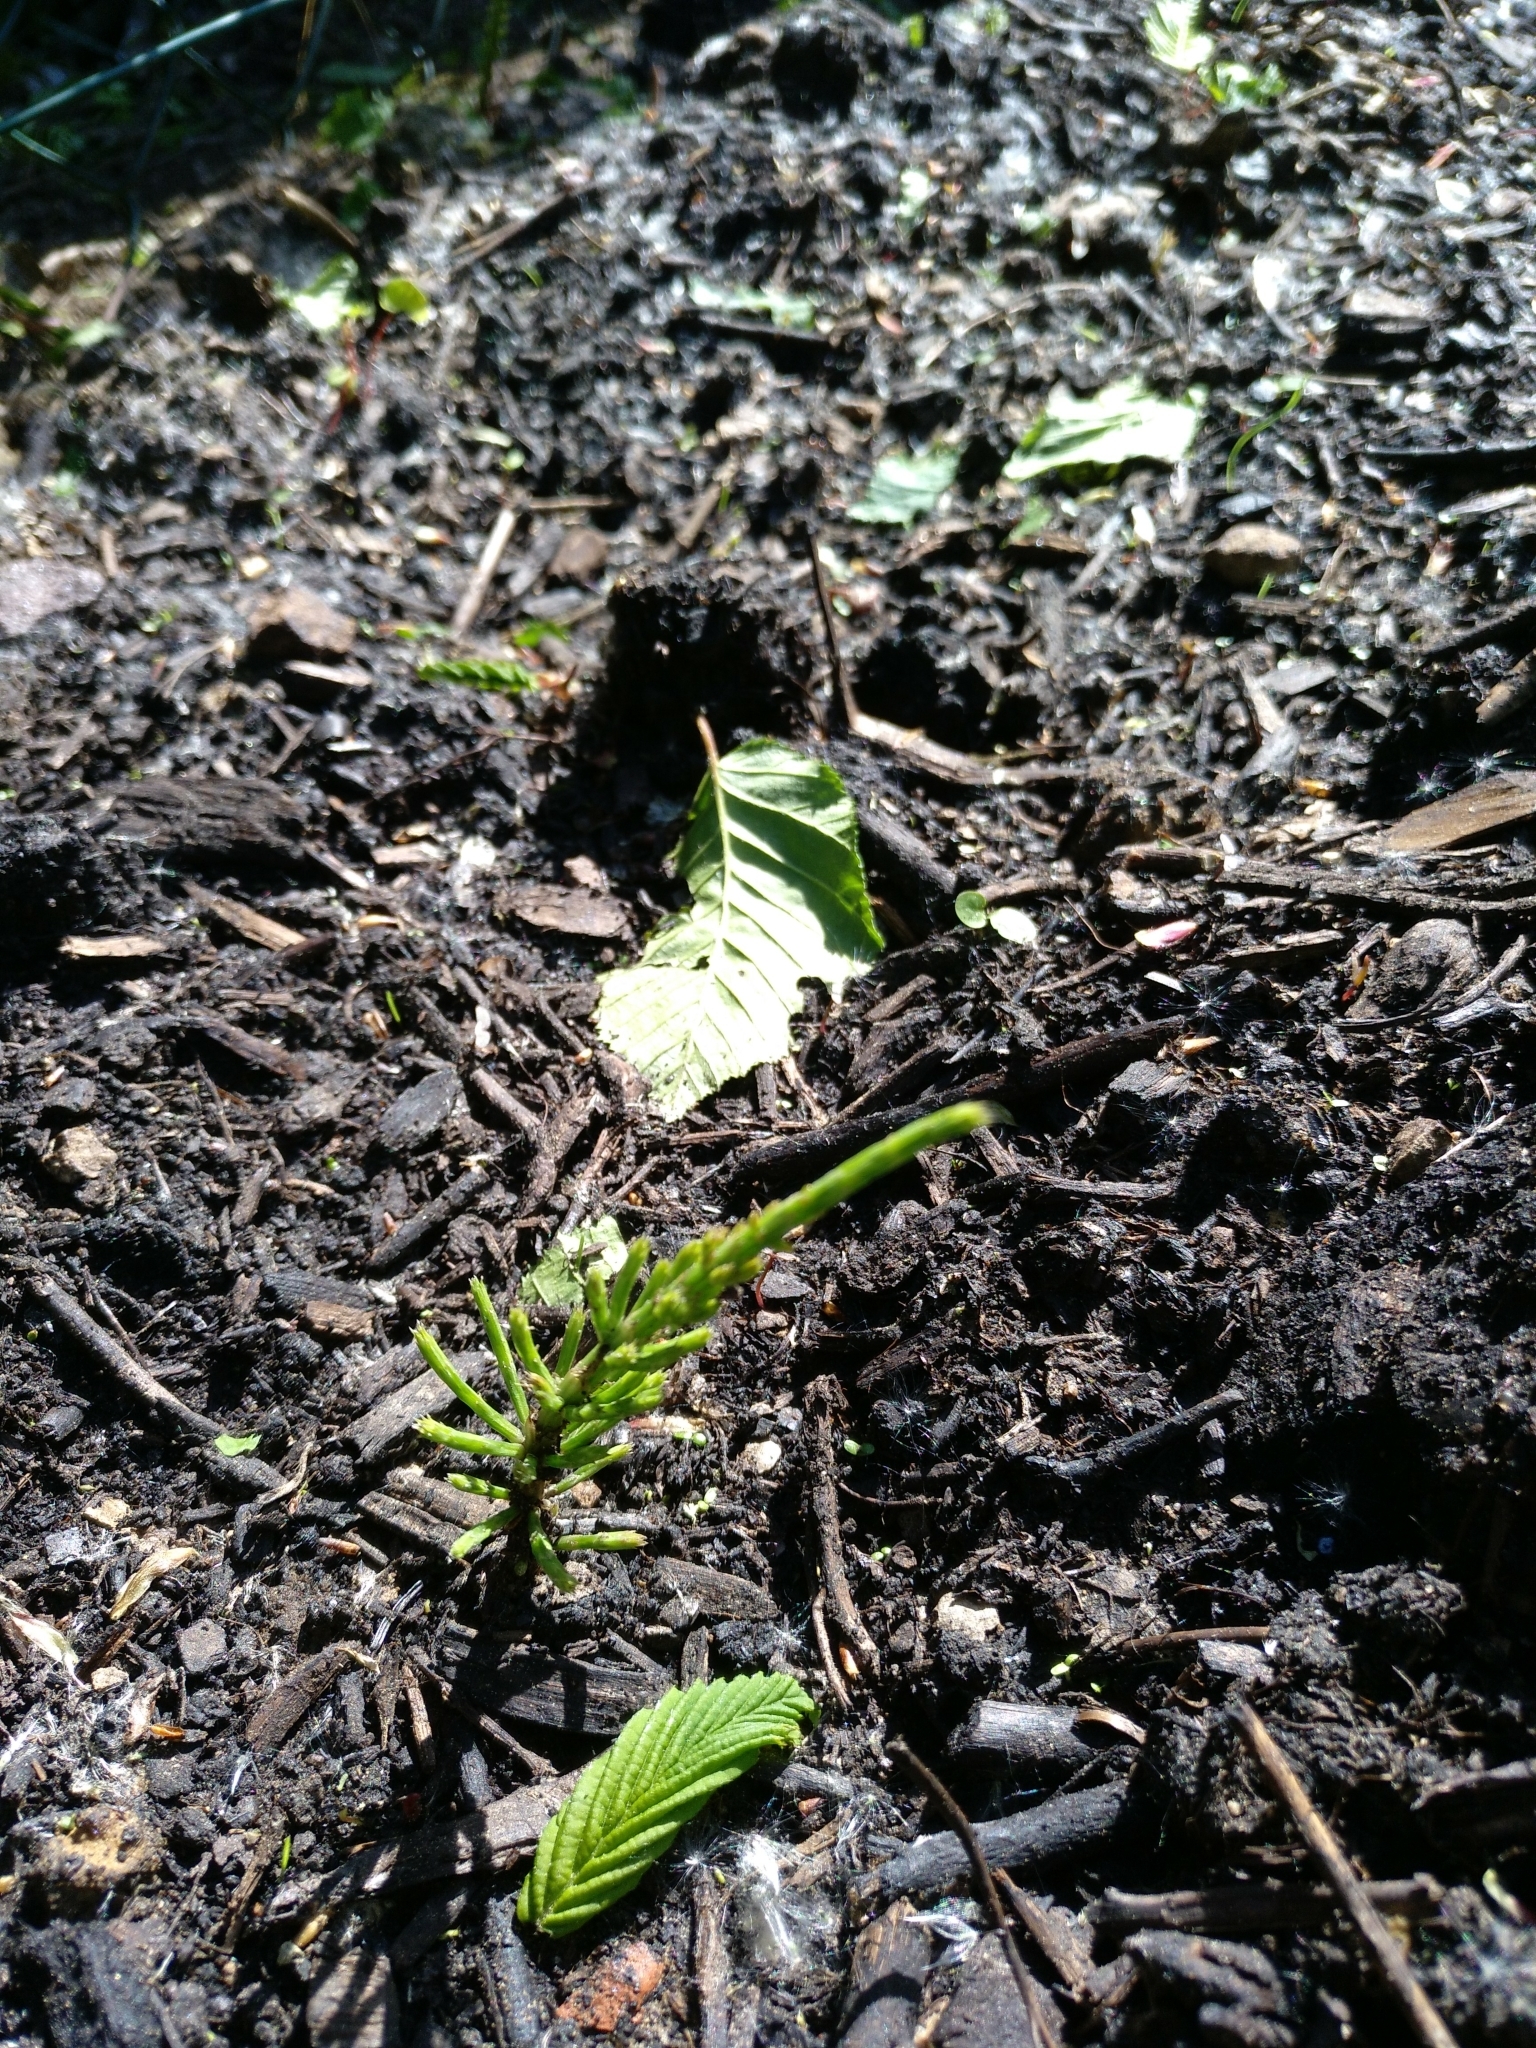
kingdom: Plantae
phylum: Tracheophyta
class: Polypodiopsida
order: Equisetales
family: Equisetaceae
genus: Equisetum
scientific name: Equisetum arvense
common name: Field horsetail
